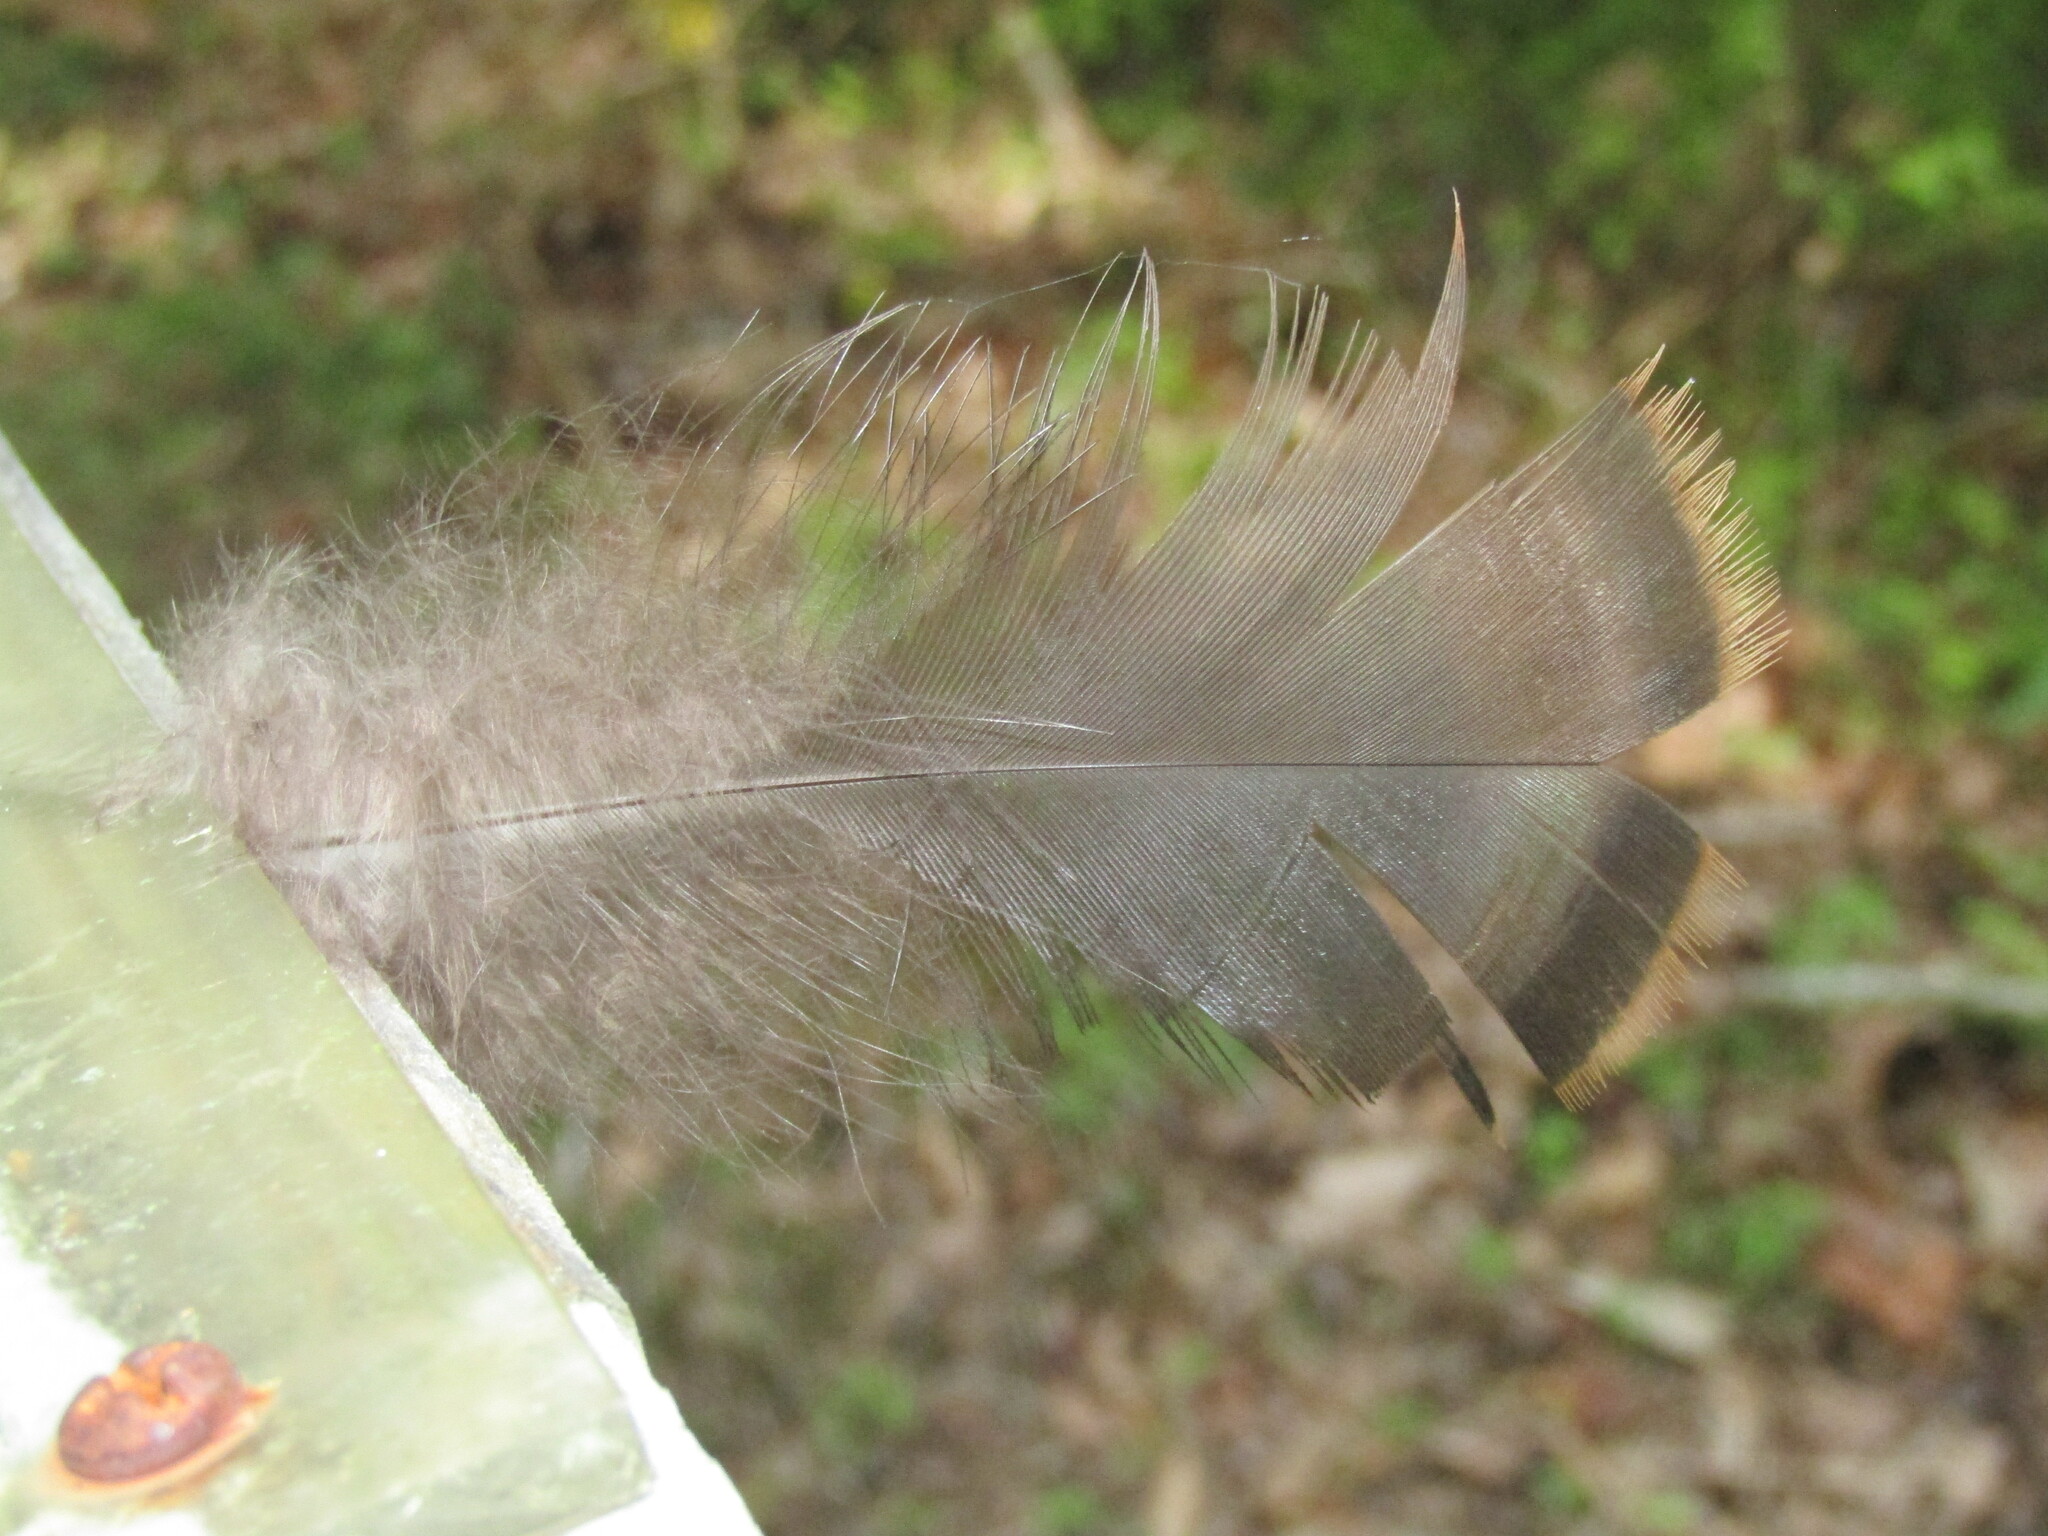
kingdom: Animalia
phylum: Chordata
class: Aves
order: Galliformes
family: Phasianidae
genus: Meleagris
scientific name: Meleagris gallopavo
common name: Wild turkey
